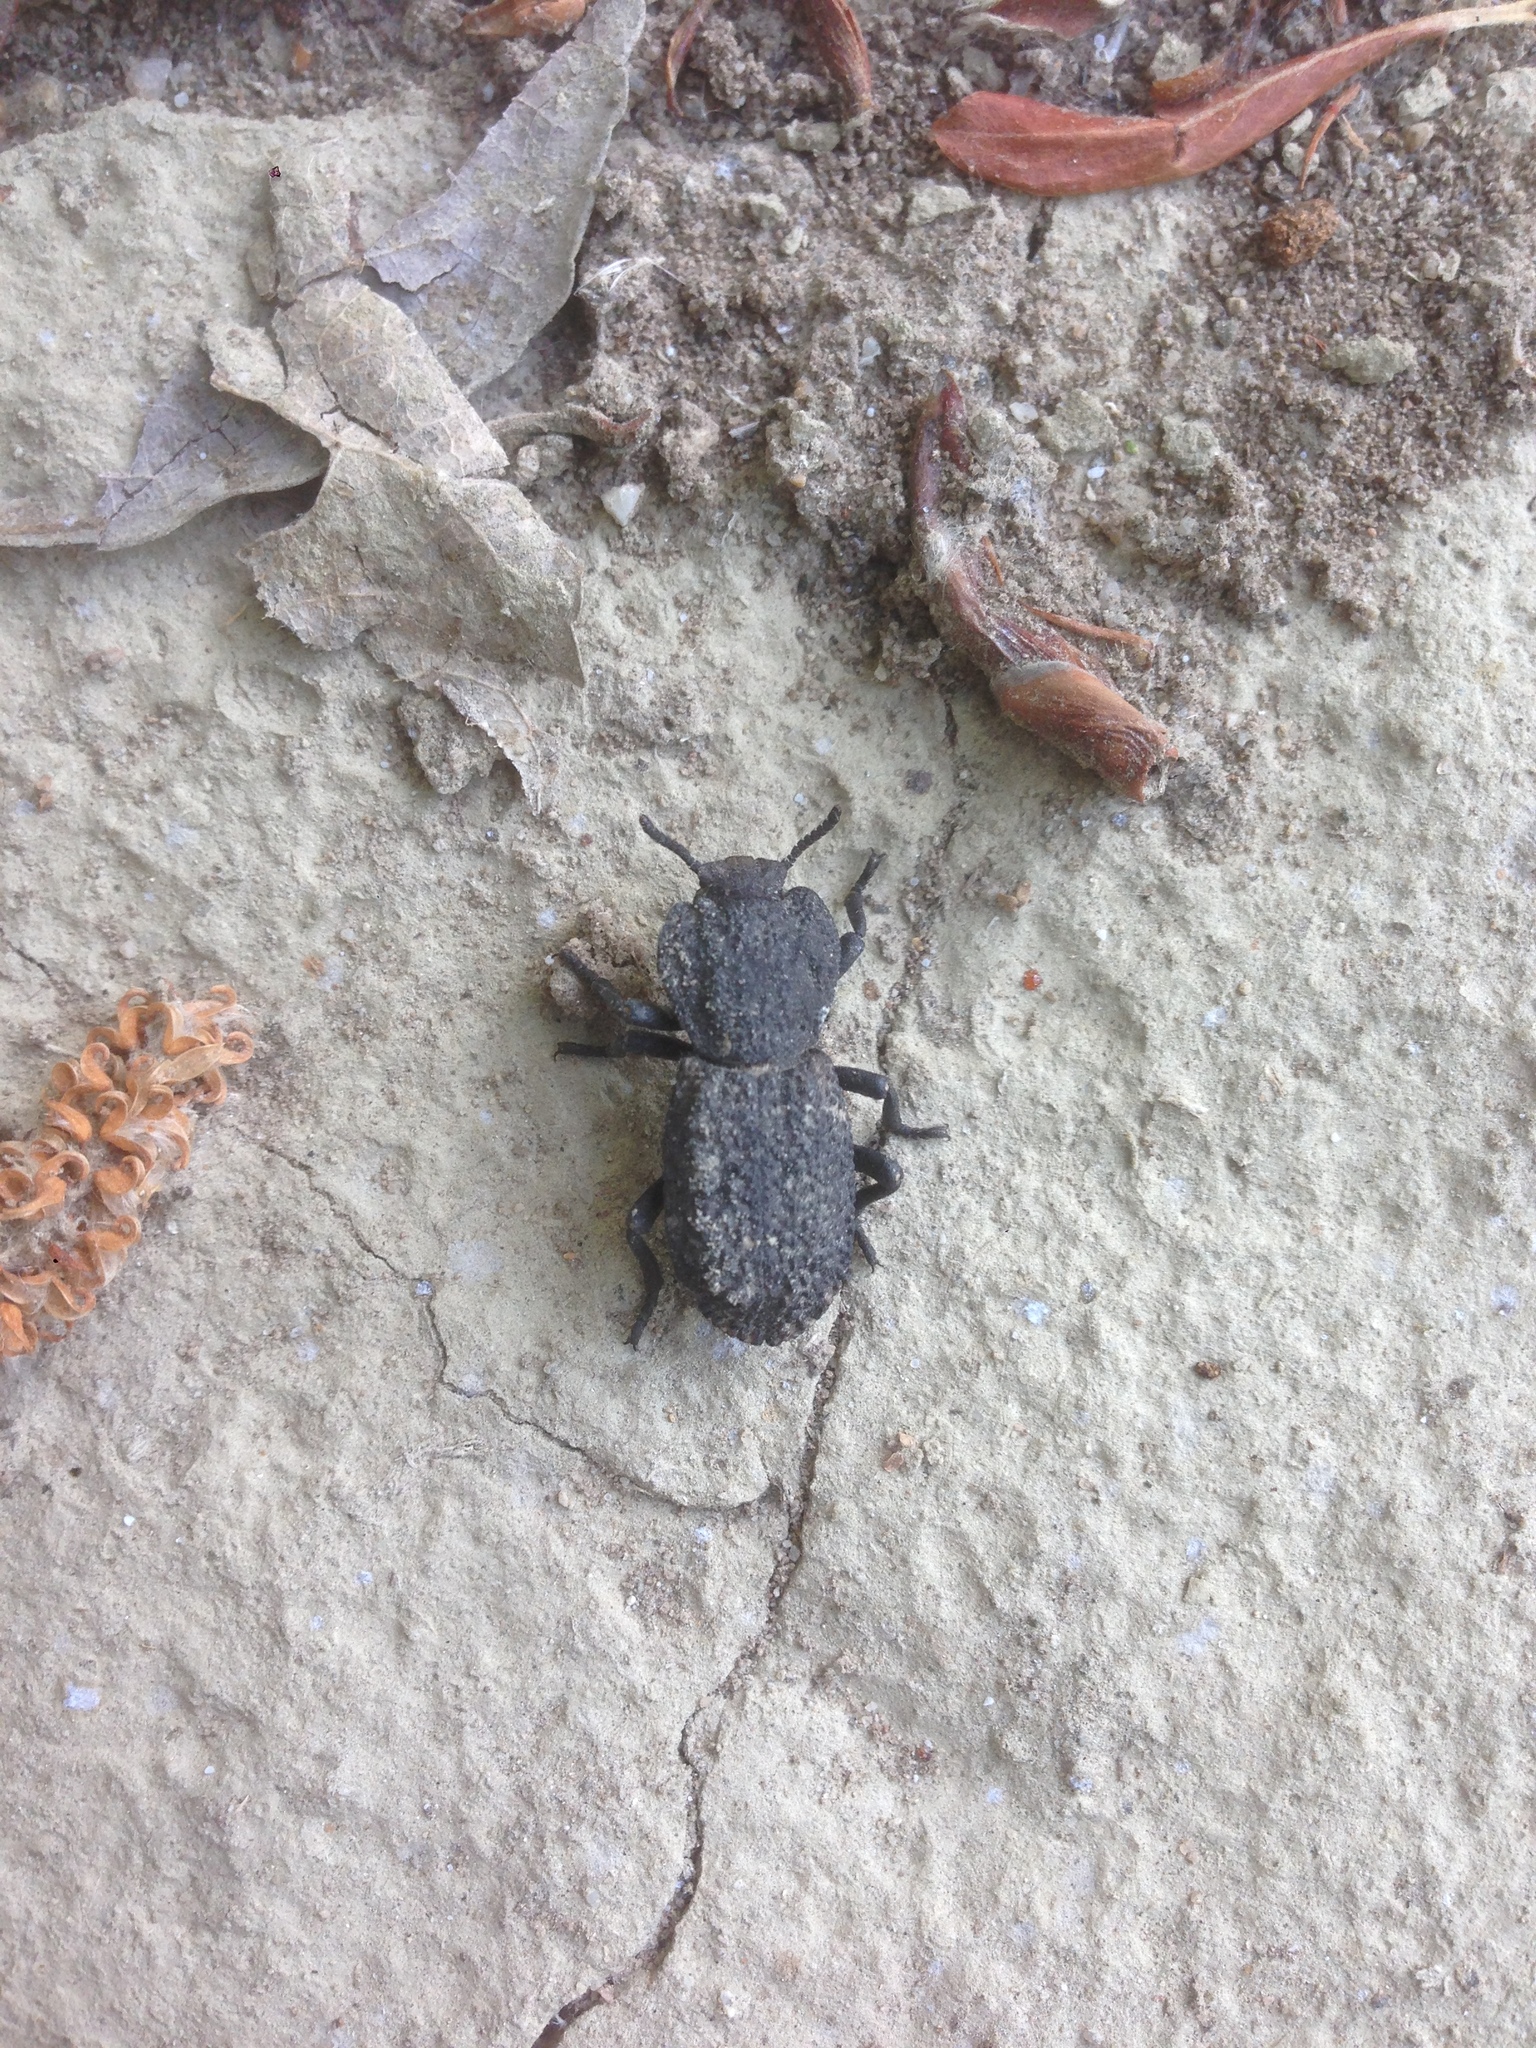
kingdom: Animalia
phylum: Arthropoda
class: Insecta
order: Coleoptera
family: Zopheridae
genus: Phloeodes
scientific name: Phloeodes diabolicus
